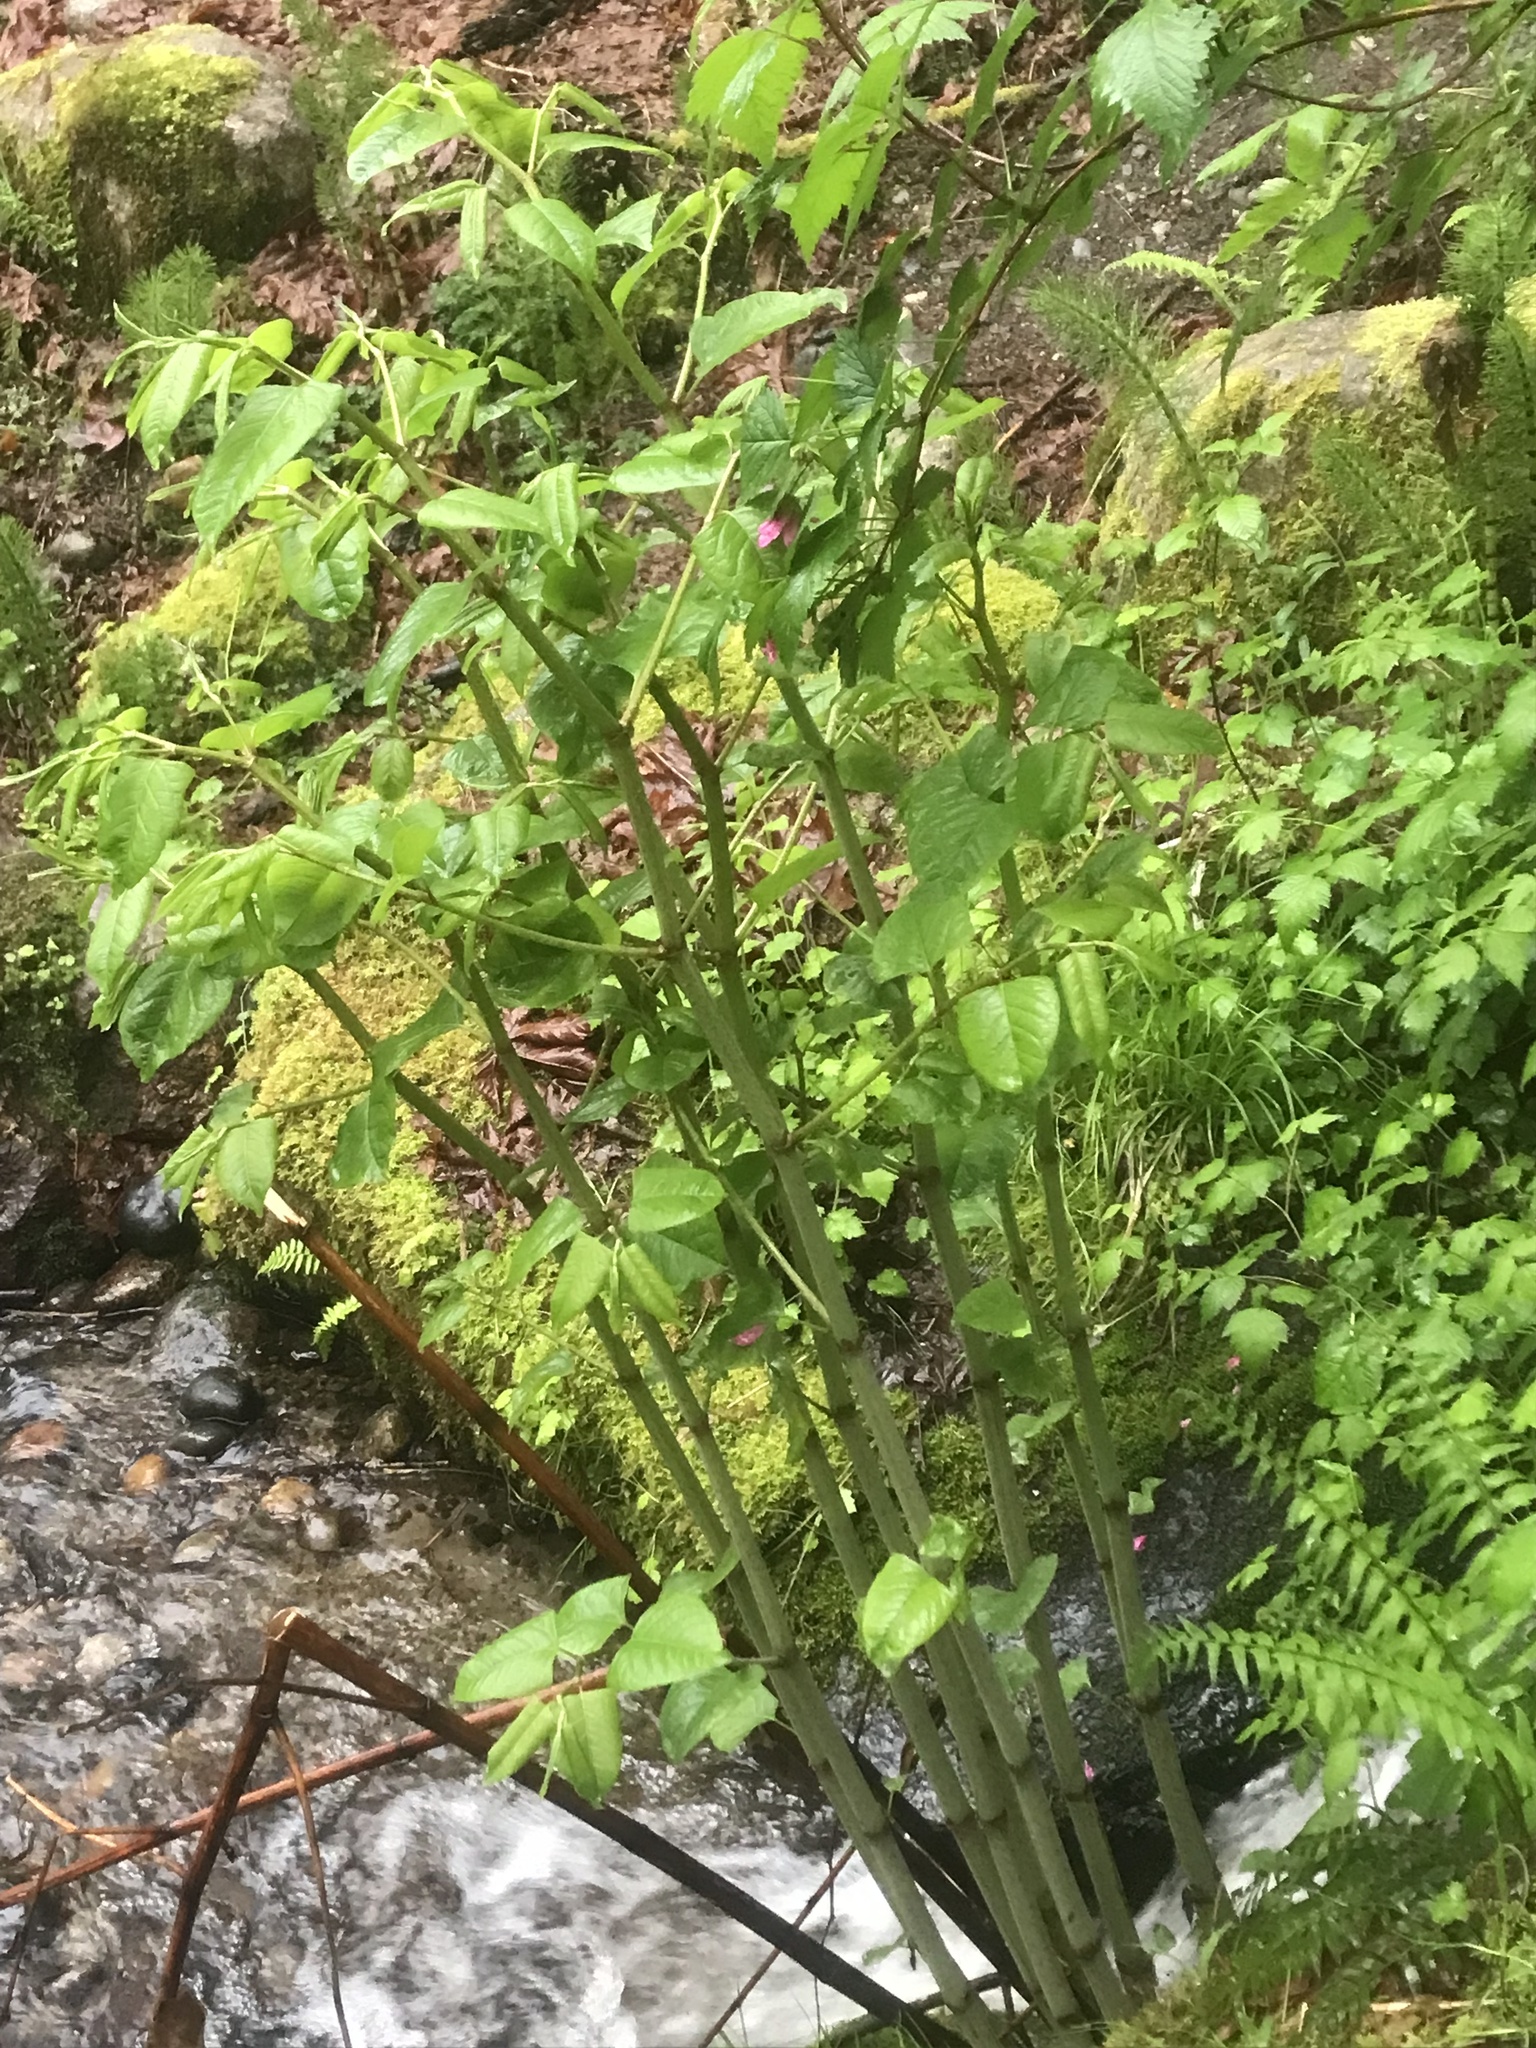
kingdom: Plantae
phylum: Tracheophyta
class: Magnoliopsida
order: Caryophyllales
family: Polygonaceae
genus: Reynoutria
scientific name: Reynoutria japonica
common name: Japanese knotweed
